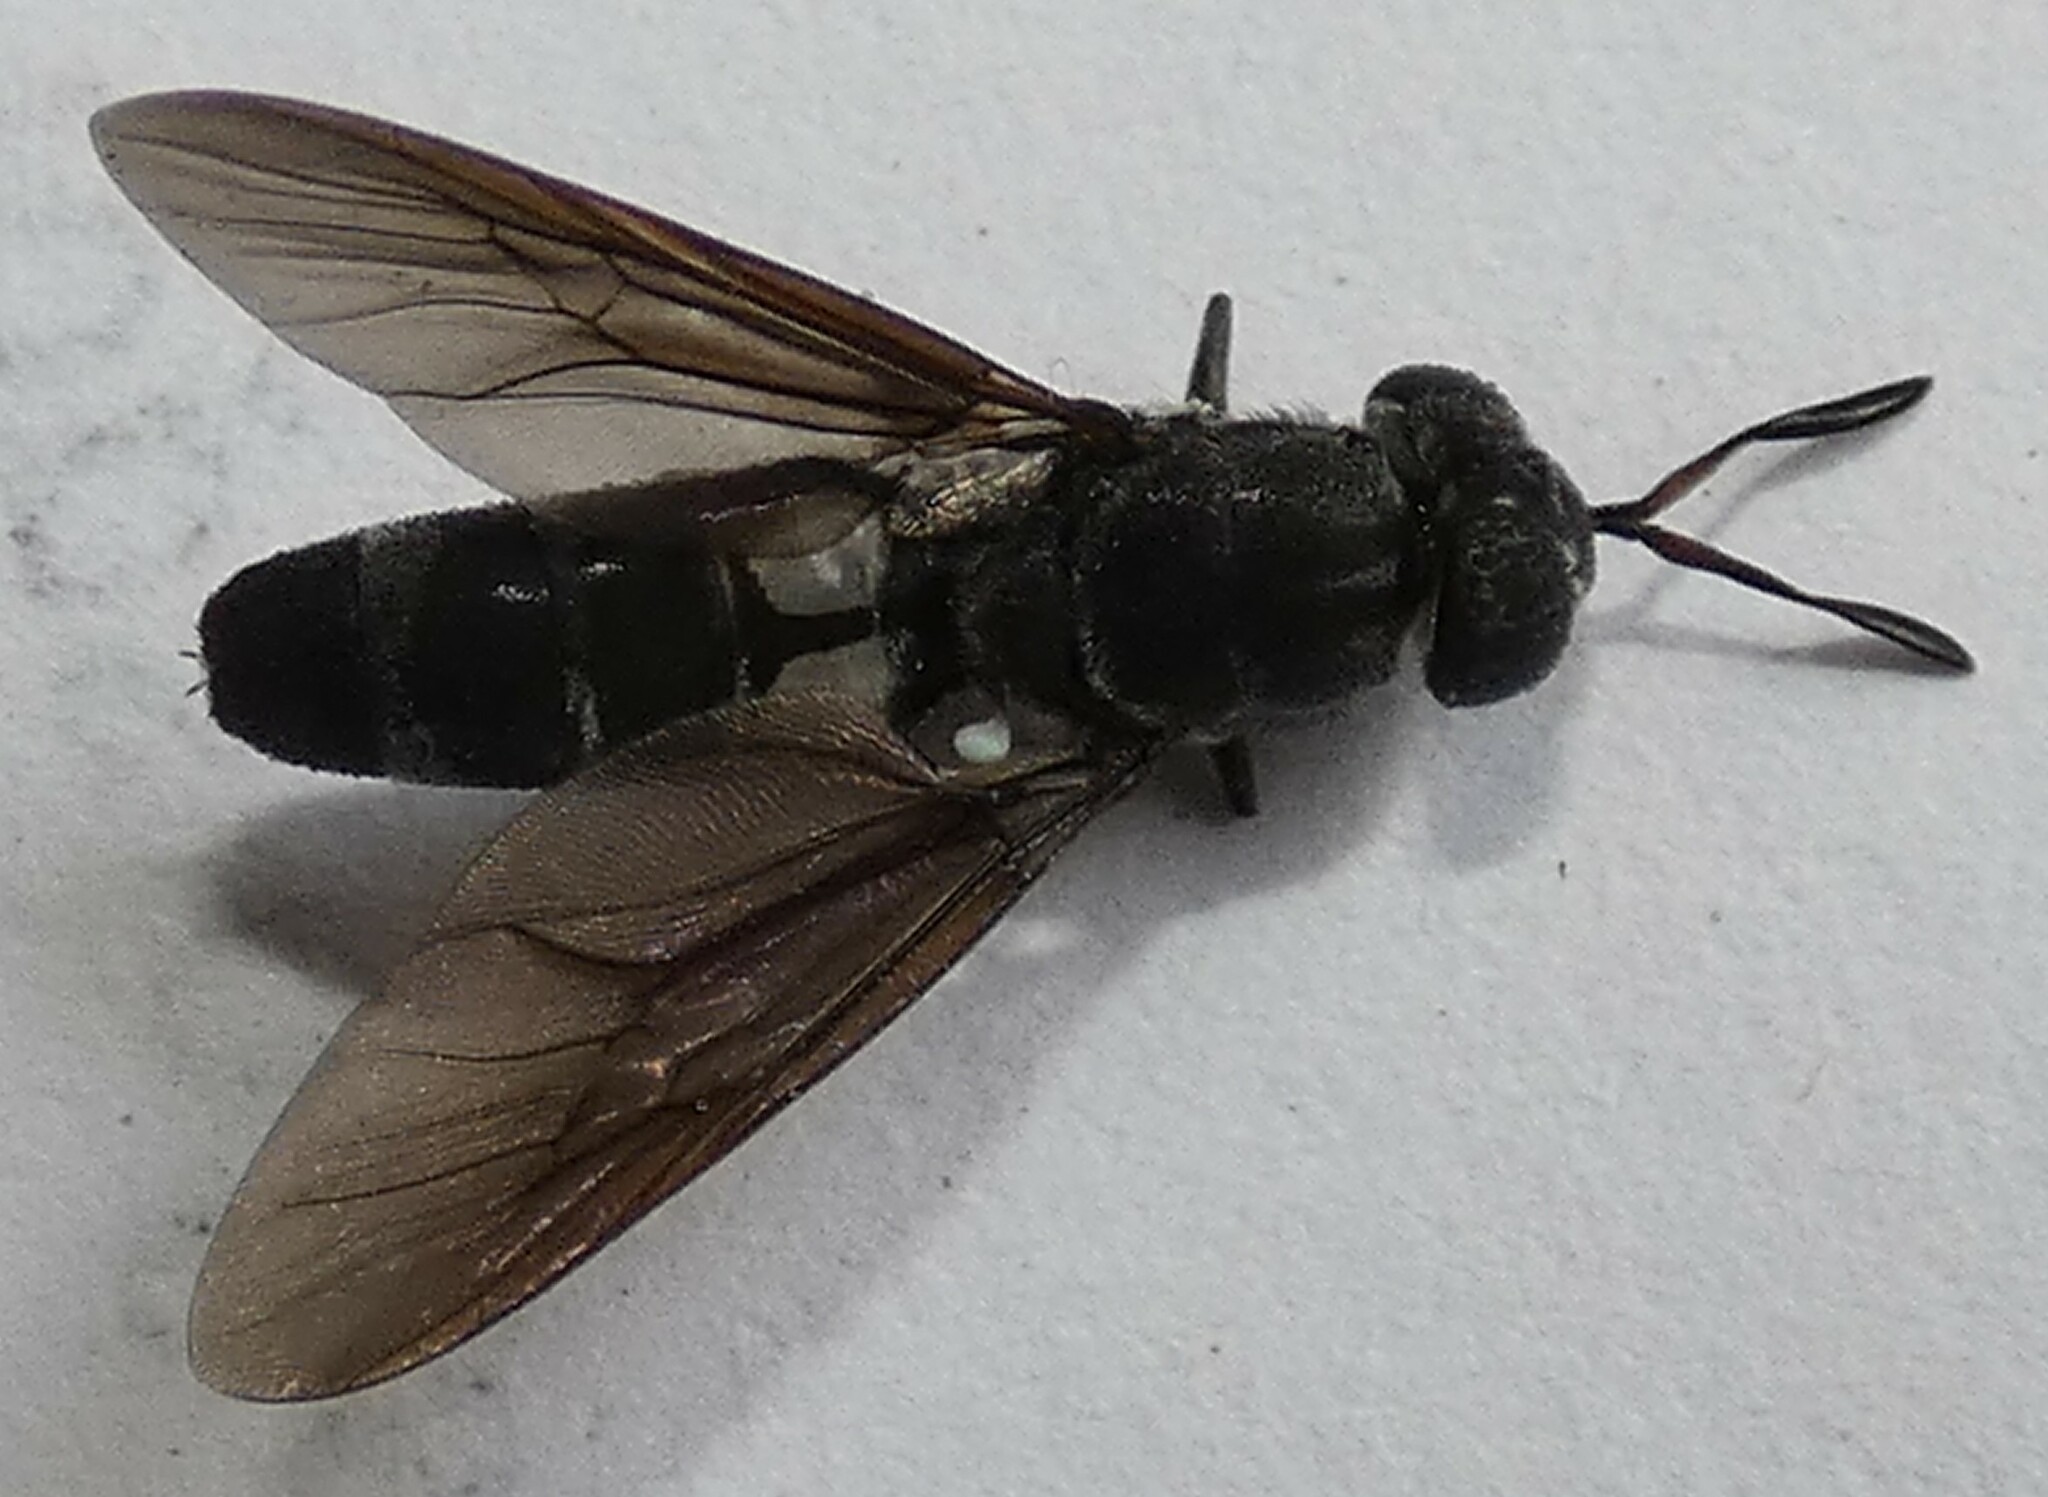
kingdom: Animalia
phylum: Arthropoda
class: Insecta
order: Diptera
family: Stratiomyidae
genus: Hermetia
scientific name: Hermetia illucens
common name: Black soldier fly
